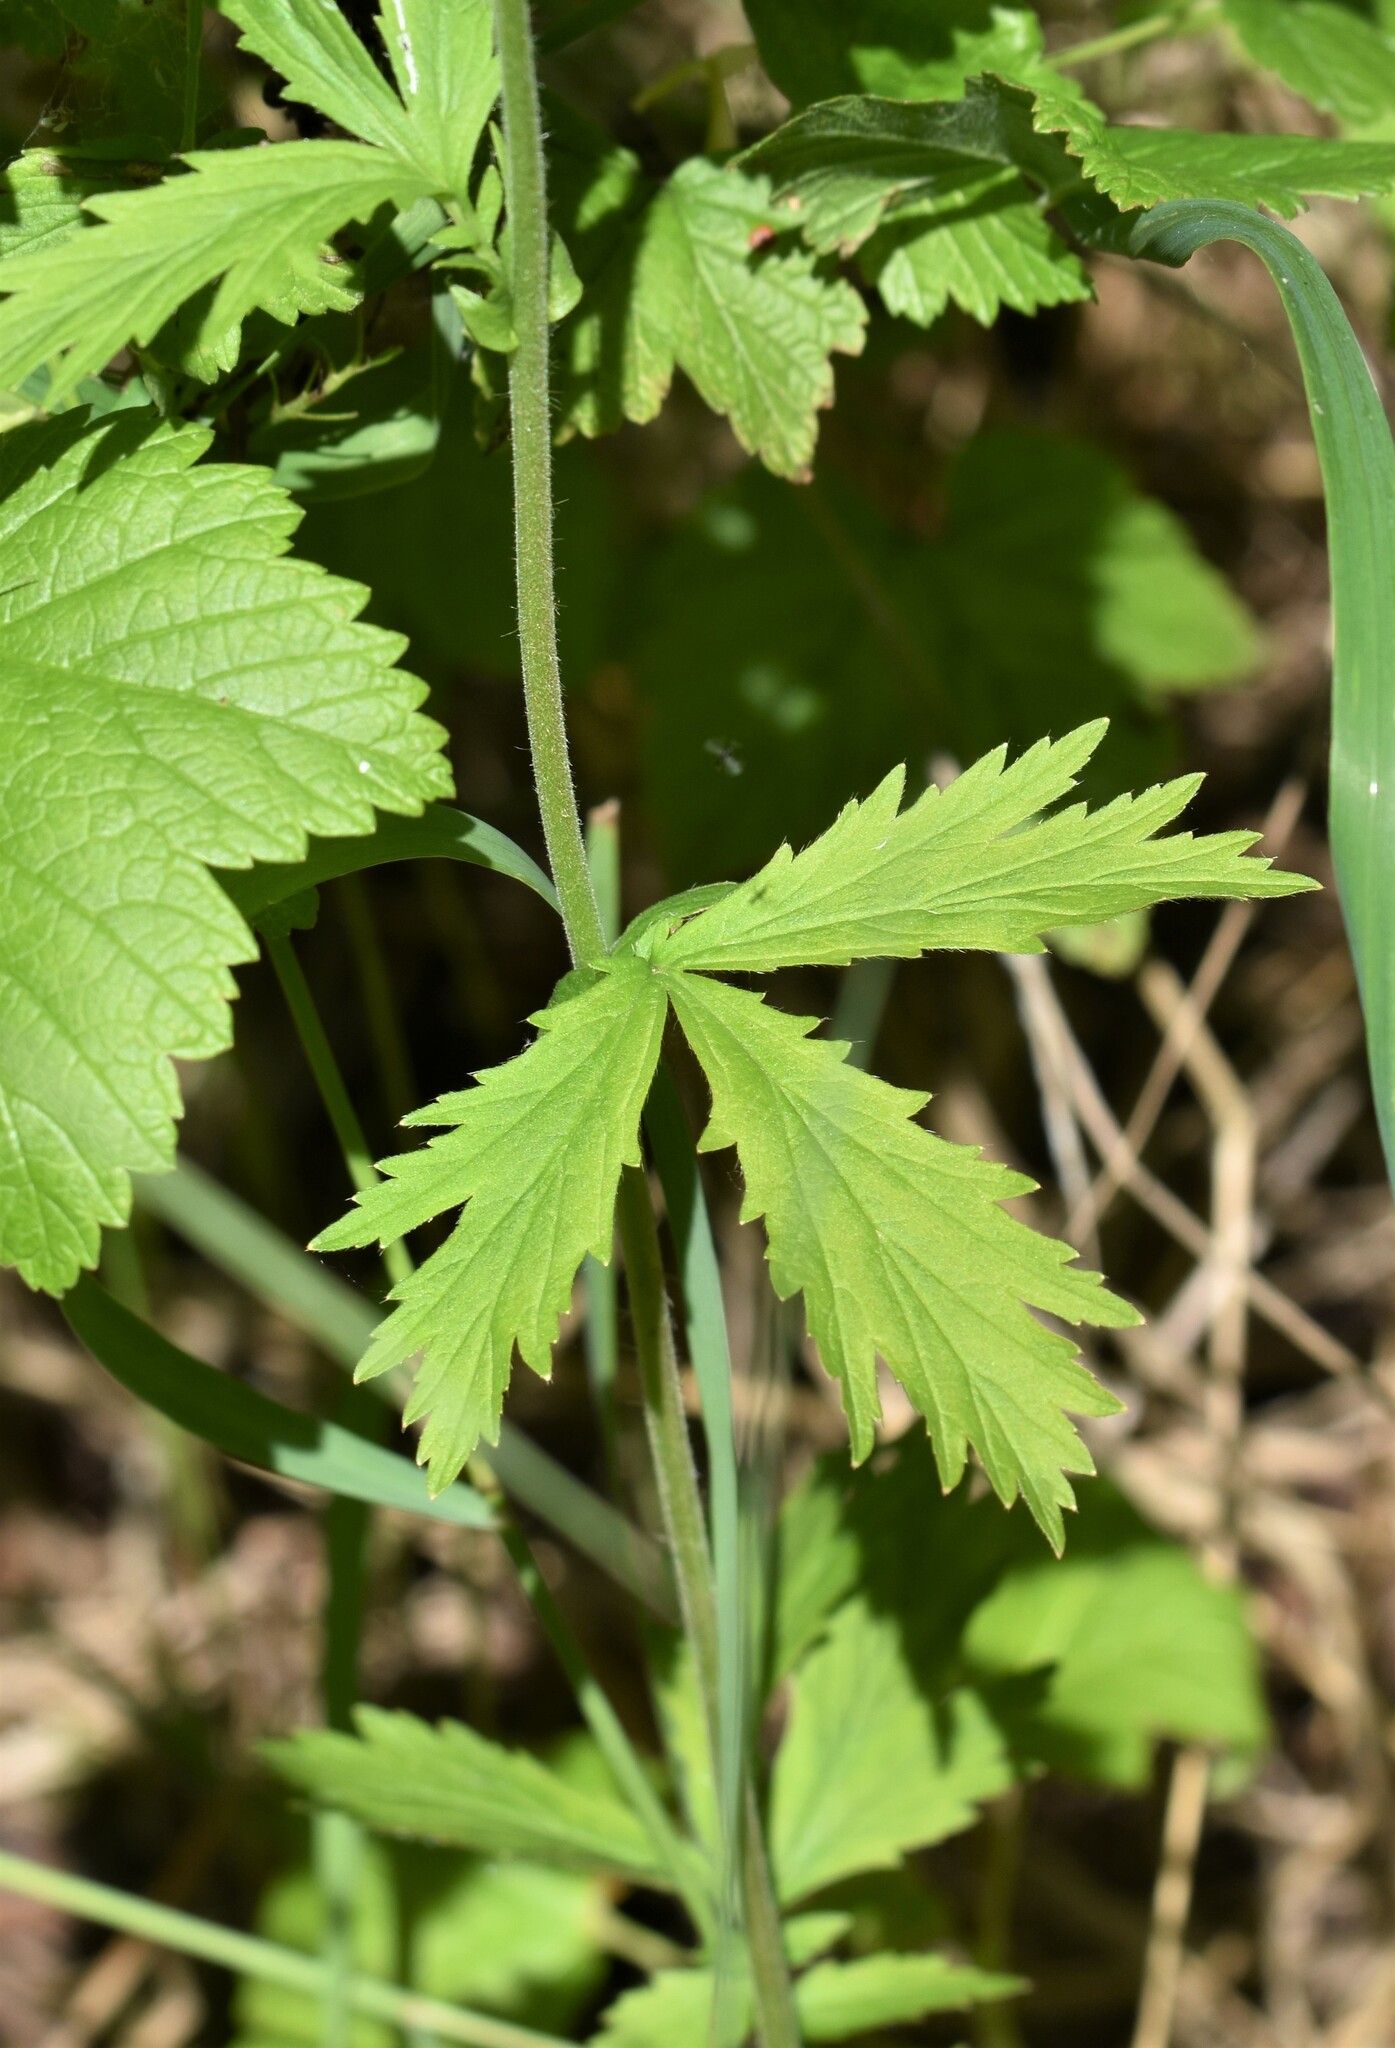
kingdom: Plantae
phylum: Tracheophyta
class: Magnoliopsida
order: Rosales
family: Rosaceae
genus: Geum
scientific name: Geum aleppicum
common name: Yellow avens
